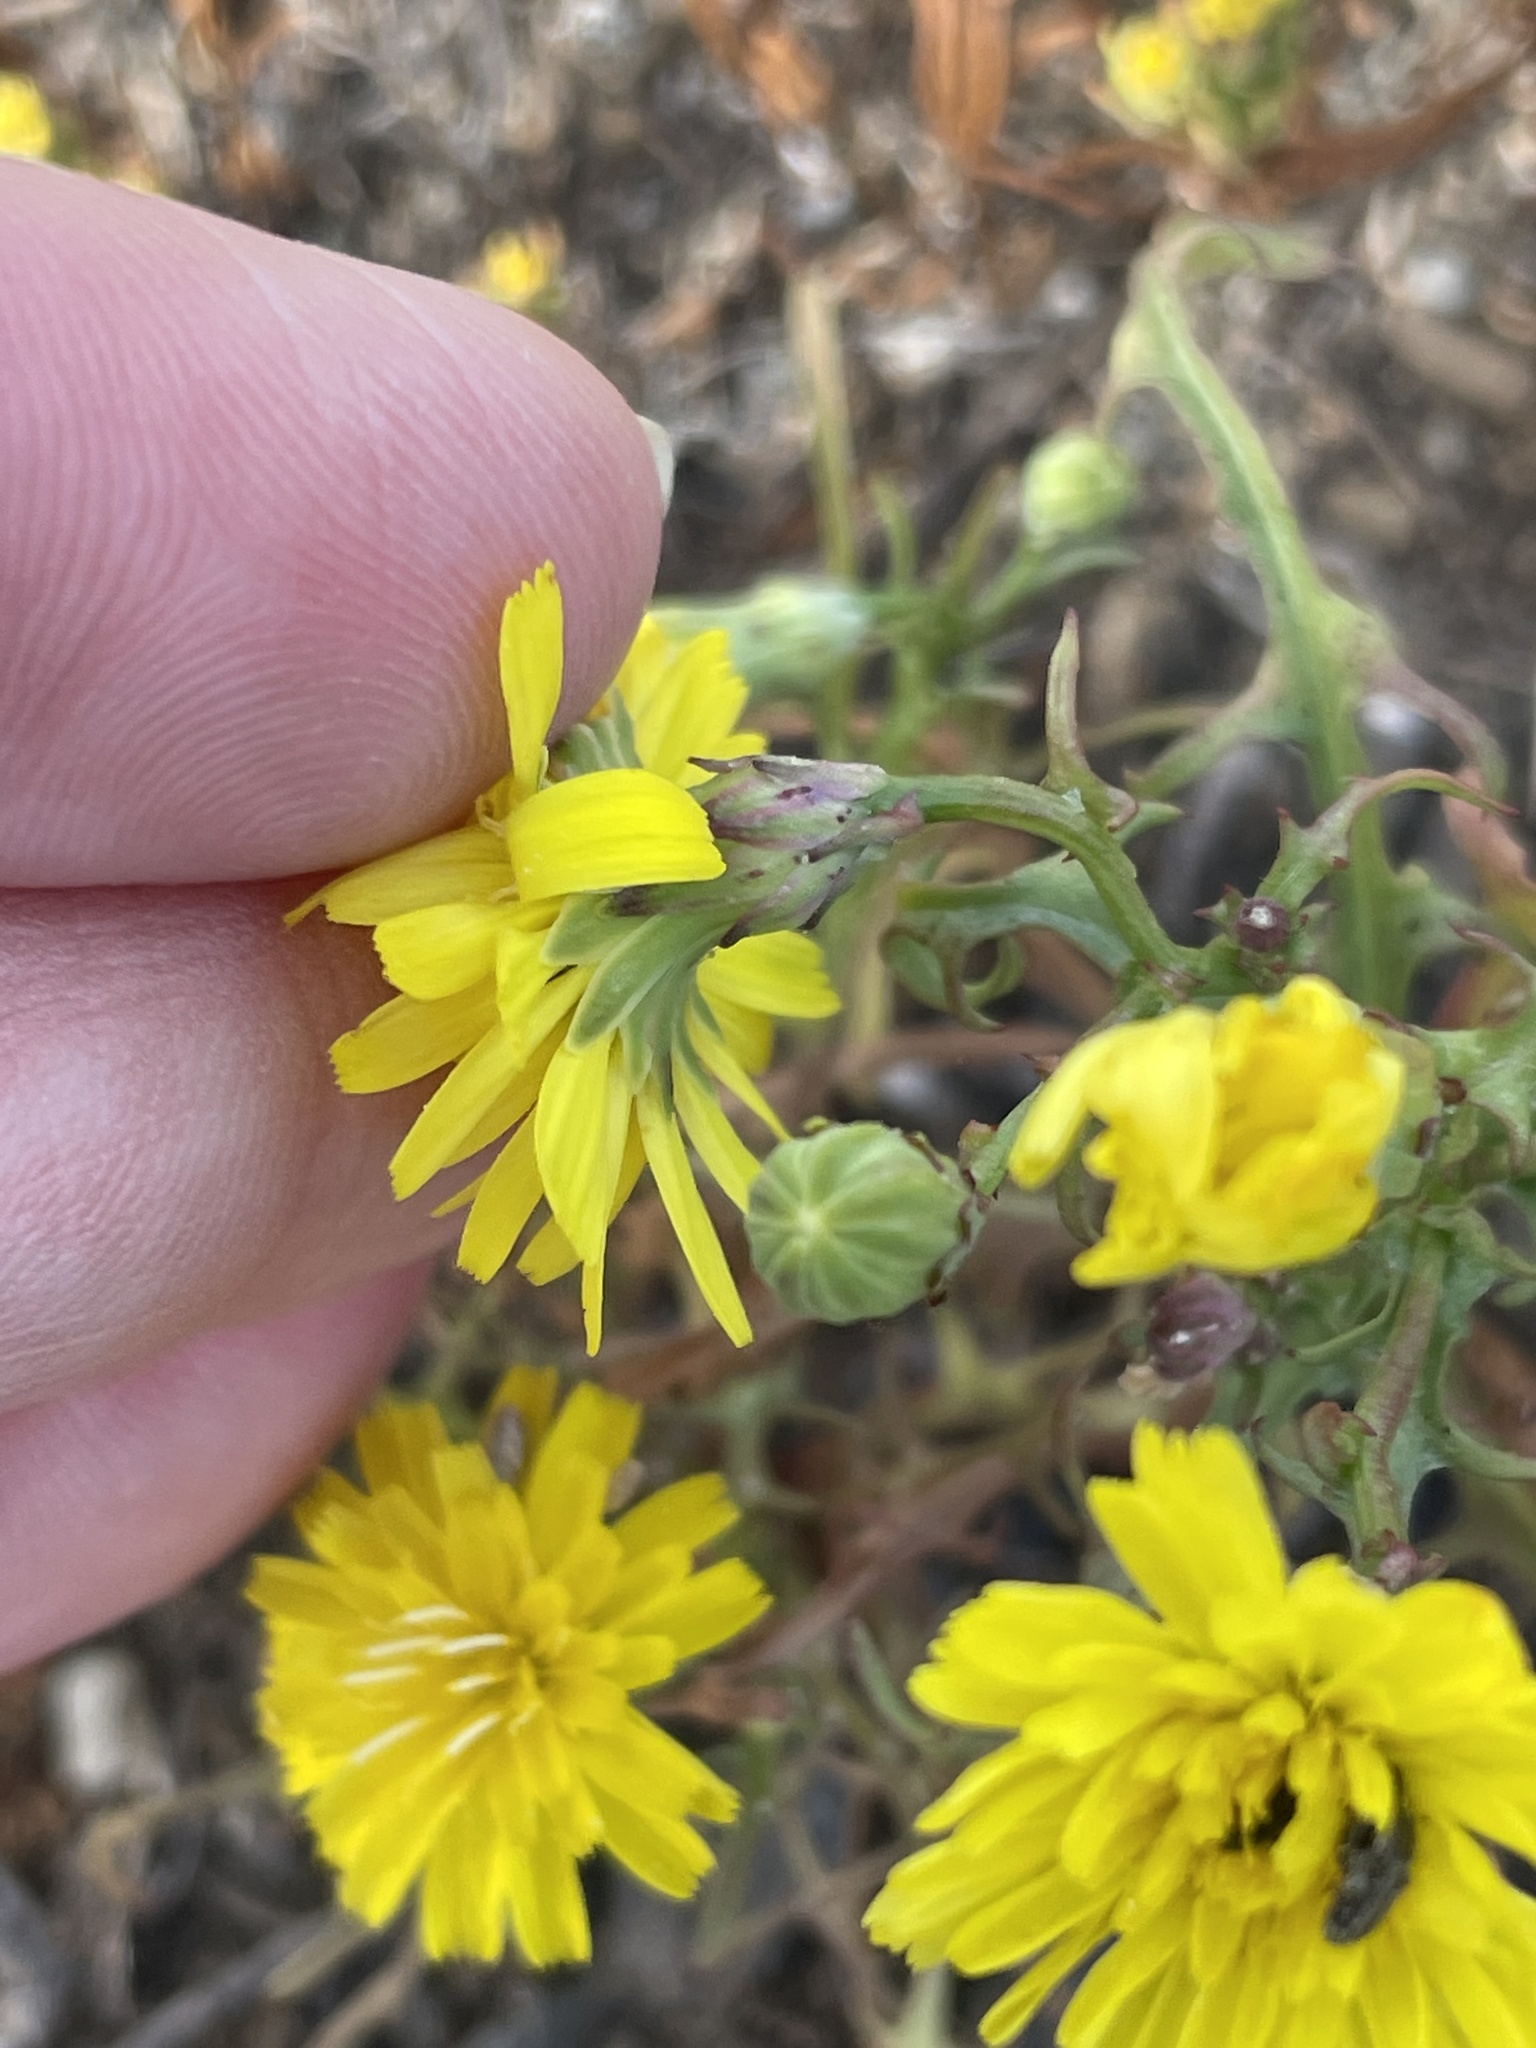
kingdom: Plantae
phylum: Tracheophyta
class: Magnoliopsida
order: Asterales
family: Asteraceae
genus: Malacothrix
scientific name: Malacothrix foliosa
